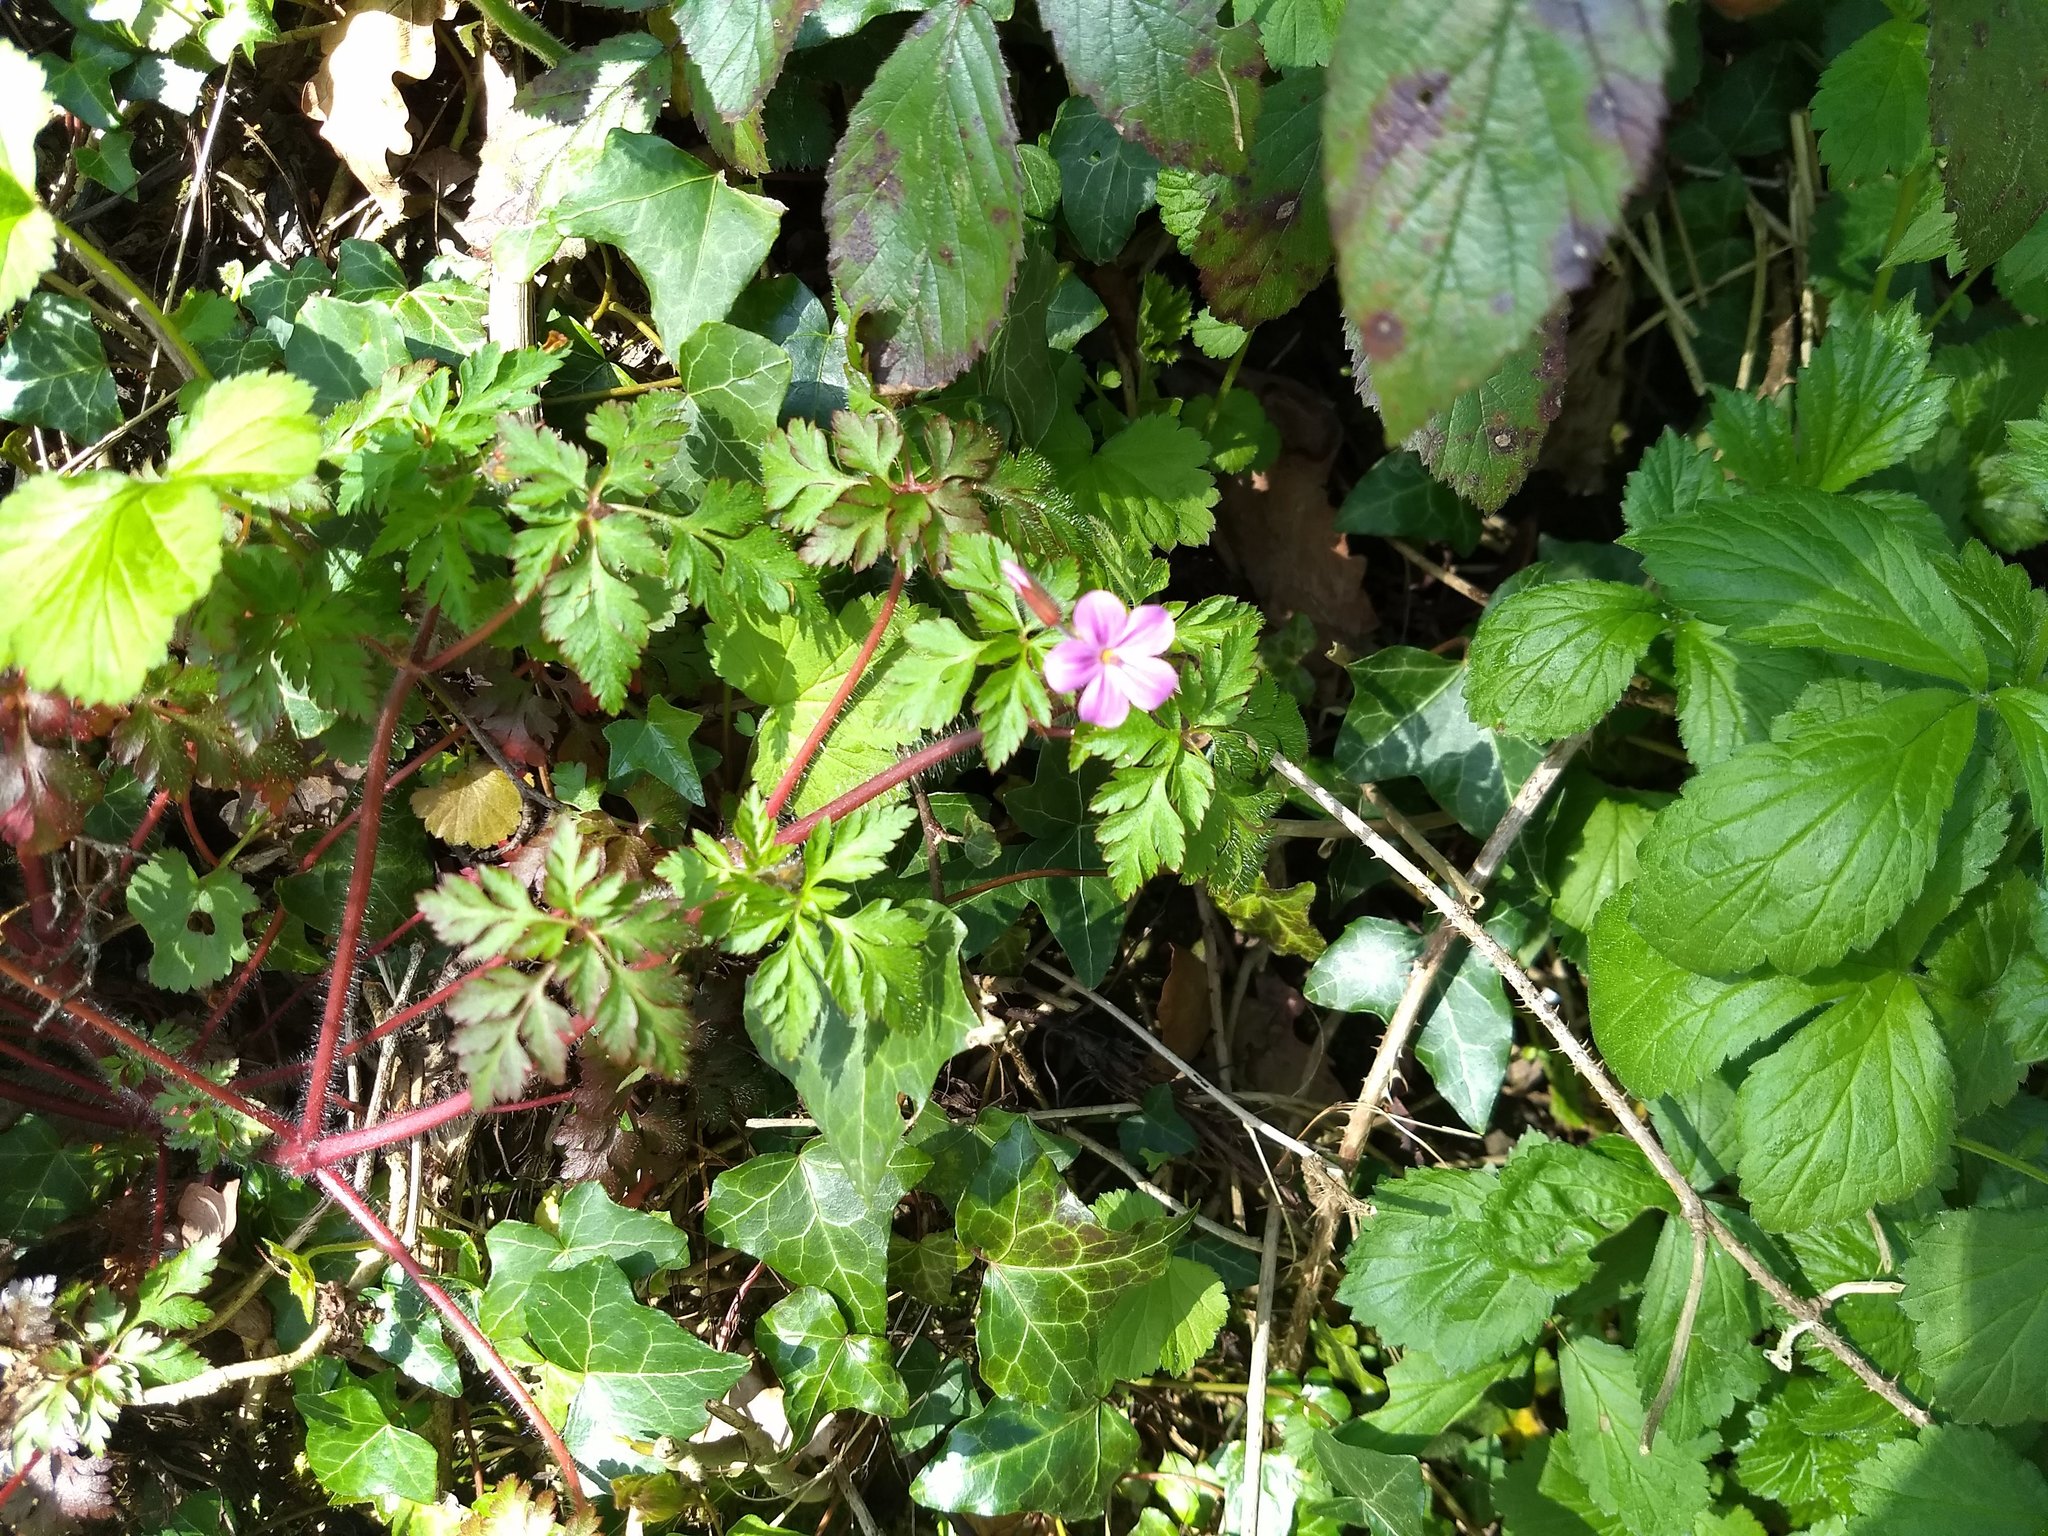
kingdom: Plantae
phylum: Tracheophyta
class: Magnoliopsida
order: Geraniales
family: Geraniaceae
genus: Geranium
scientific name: Geranium robertianum
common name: Herb-robert
